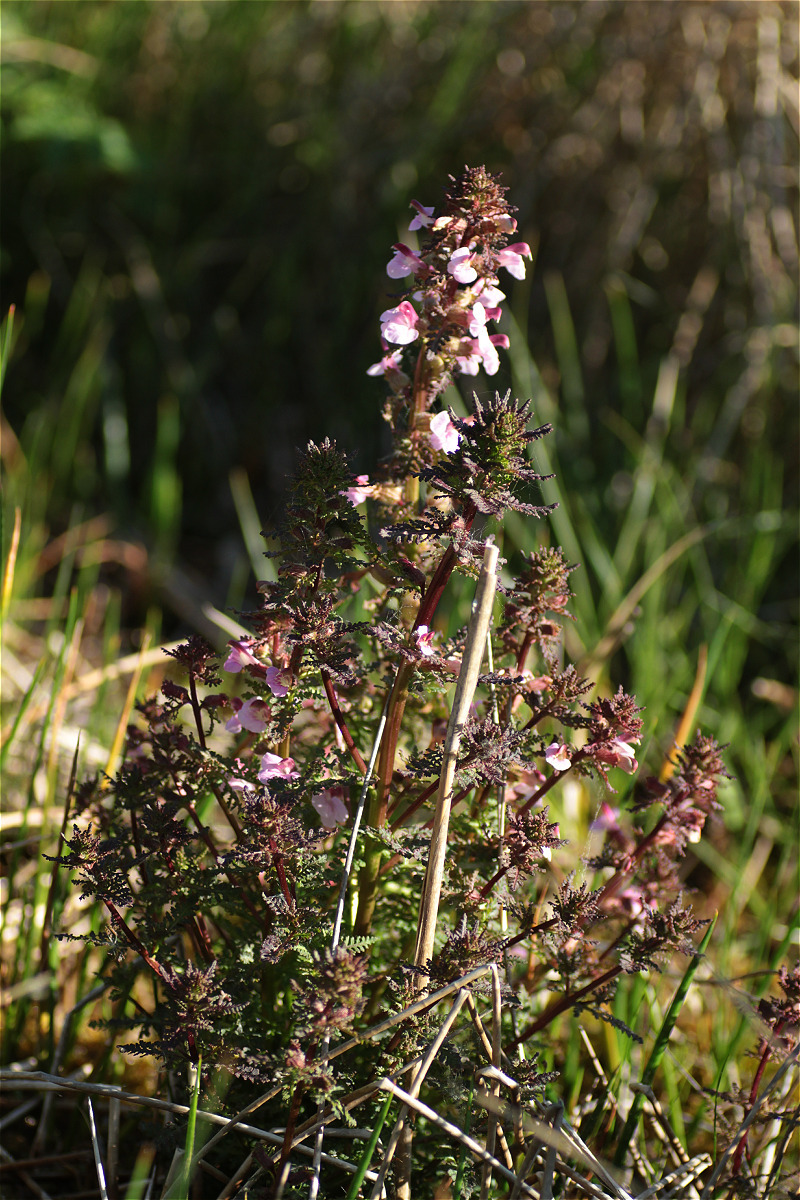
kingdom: Plantae
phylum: Tracheophyta
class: Magnoliopsida
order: Lamiales
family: Orobanchaceae
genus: Pedicularis
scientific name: Pedicularis palustris
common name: Marsh lousewort
